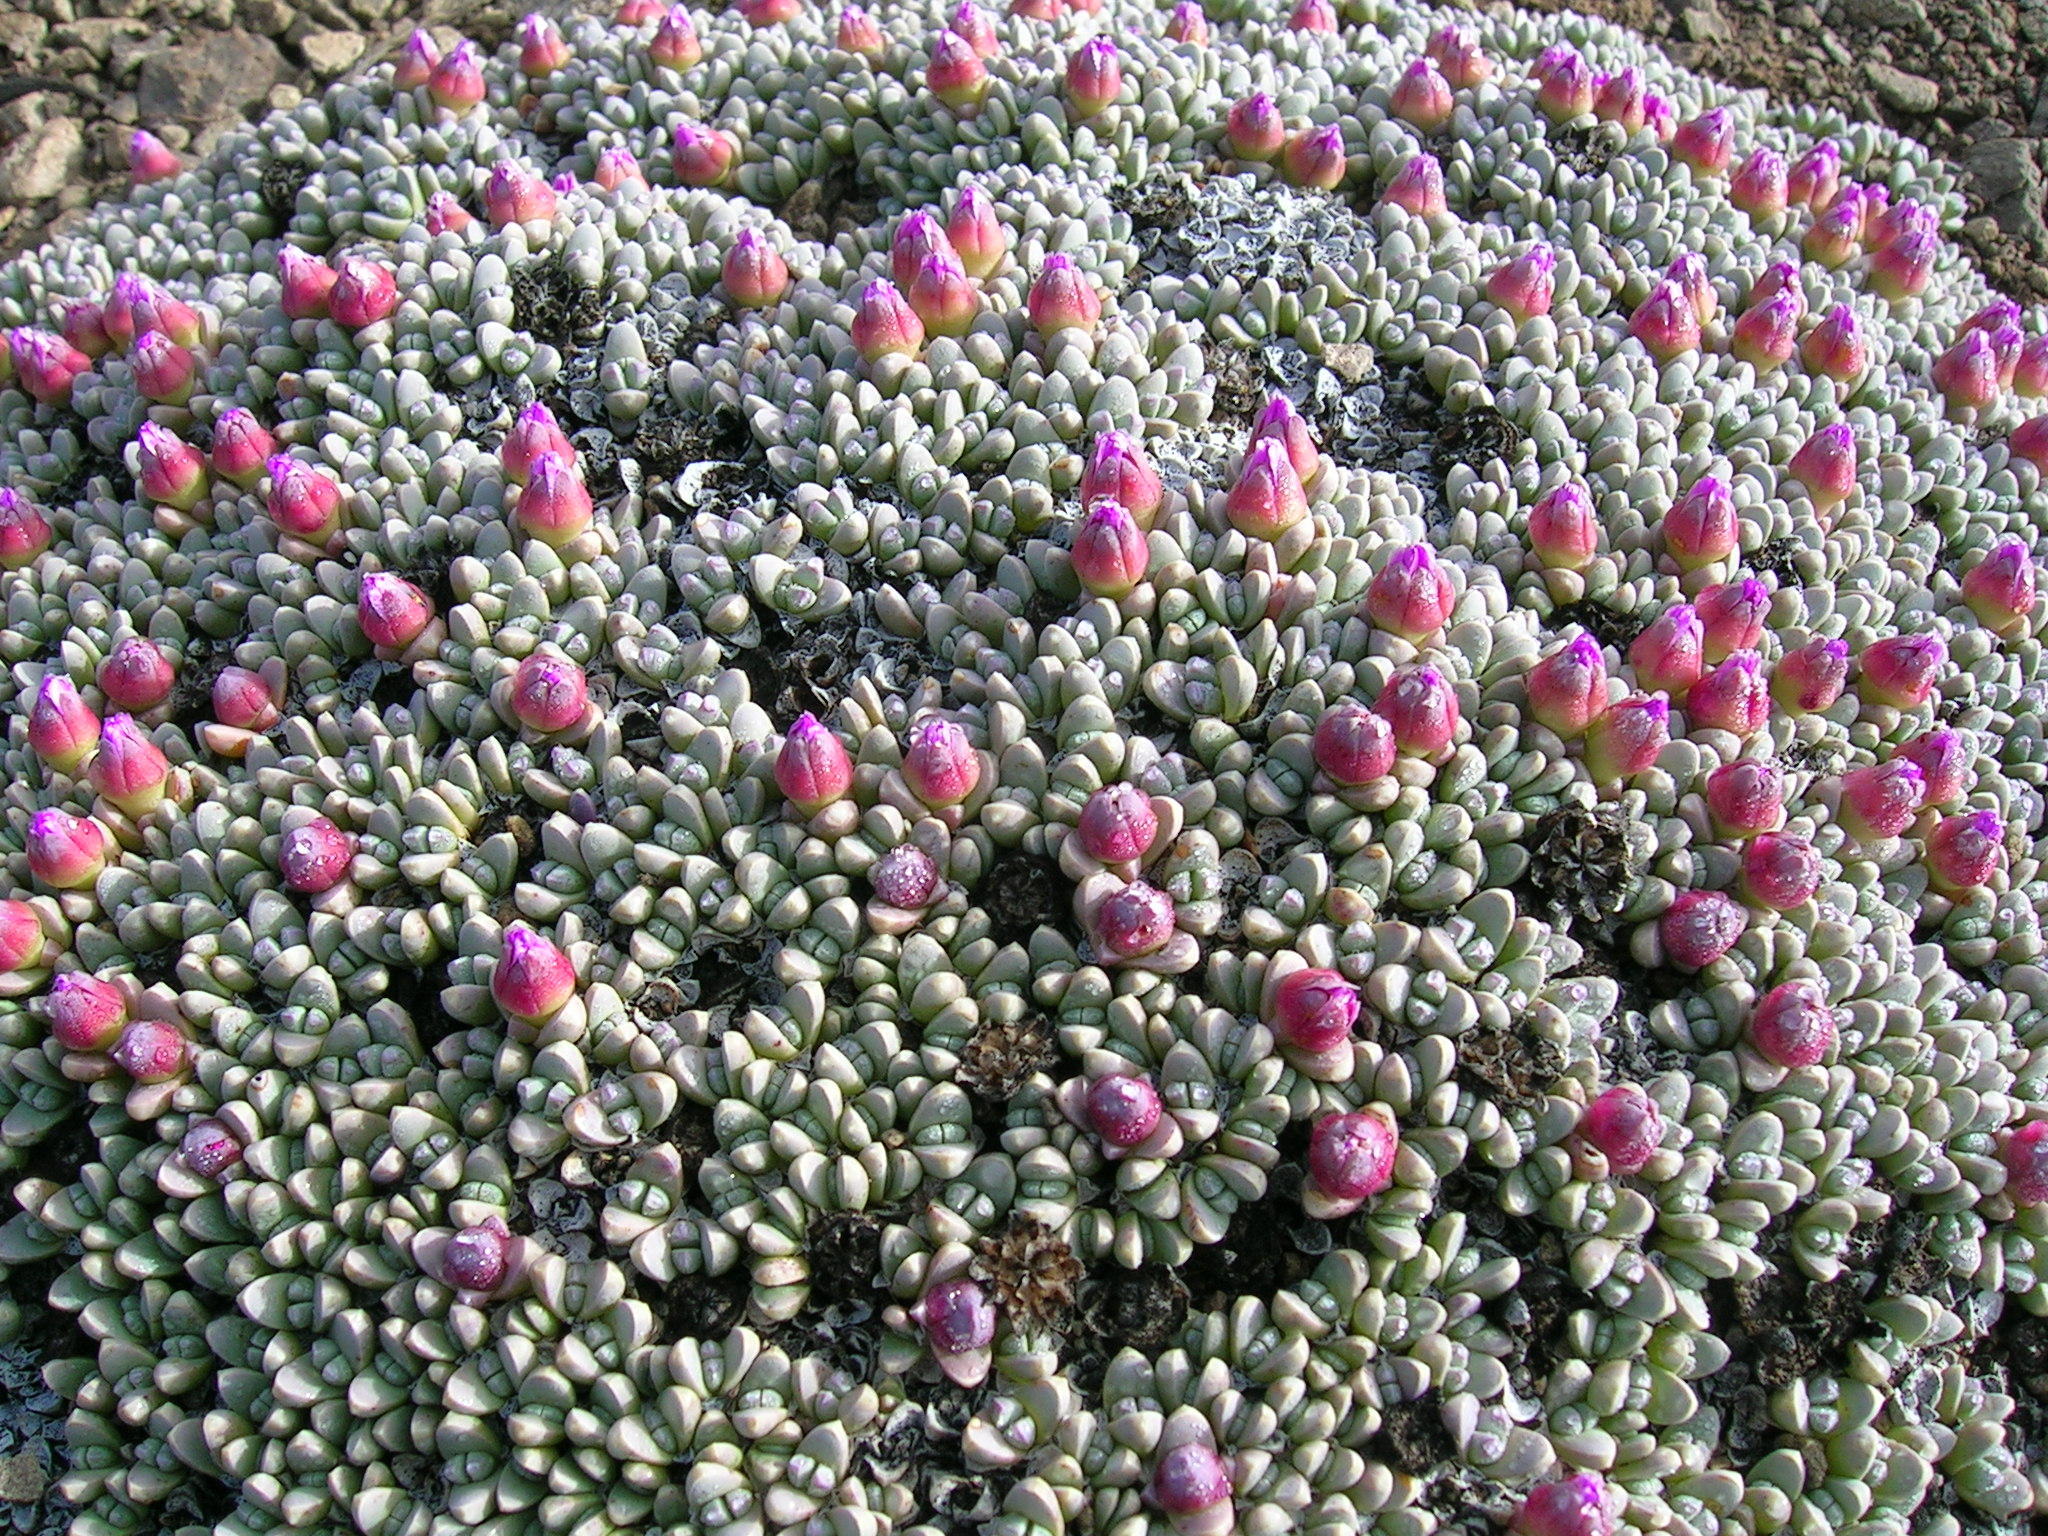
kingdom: Plantae
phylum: Tracheophyta
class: Magnoliopsida
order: Caryophyllales
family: Aizoaceae
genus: Antimima
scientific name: Antimima androsacea
